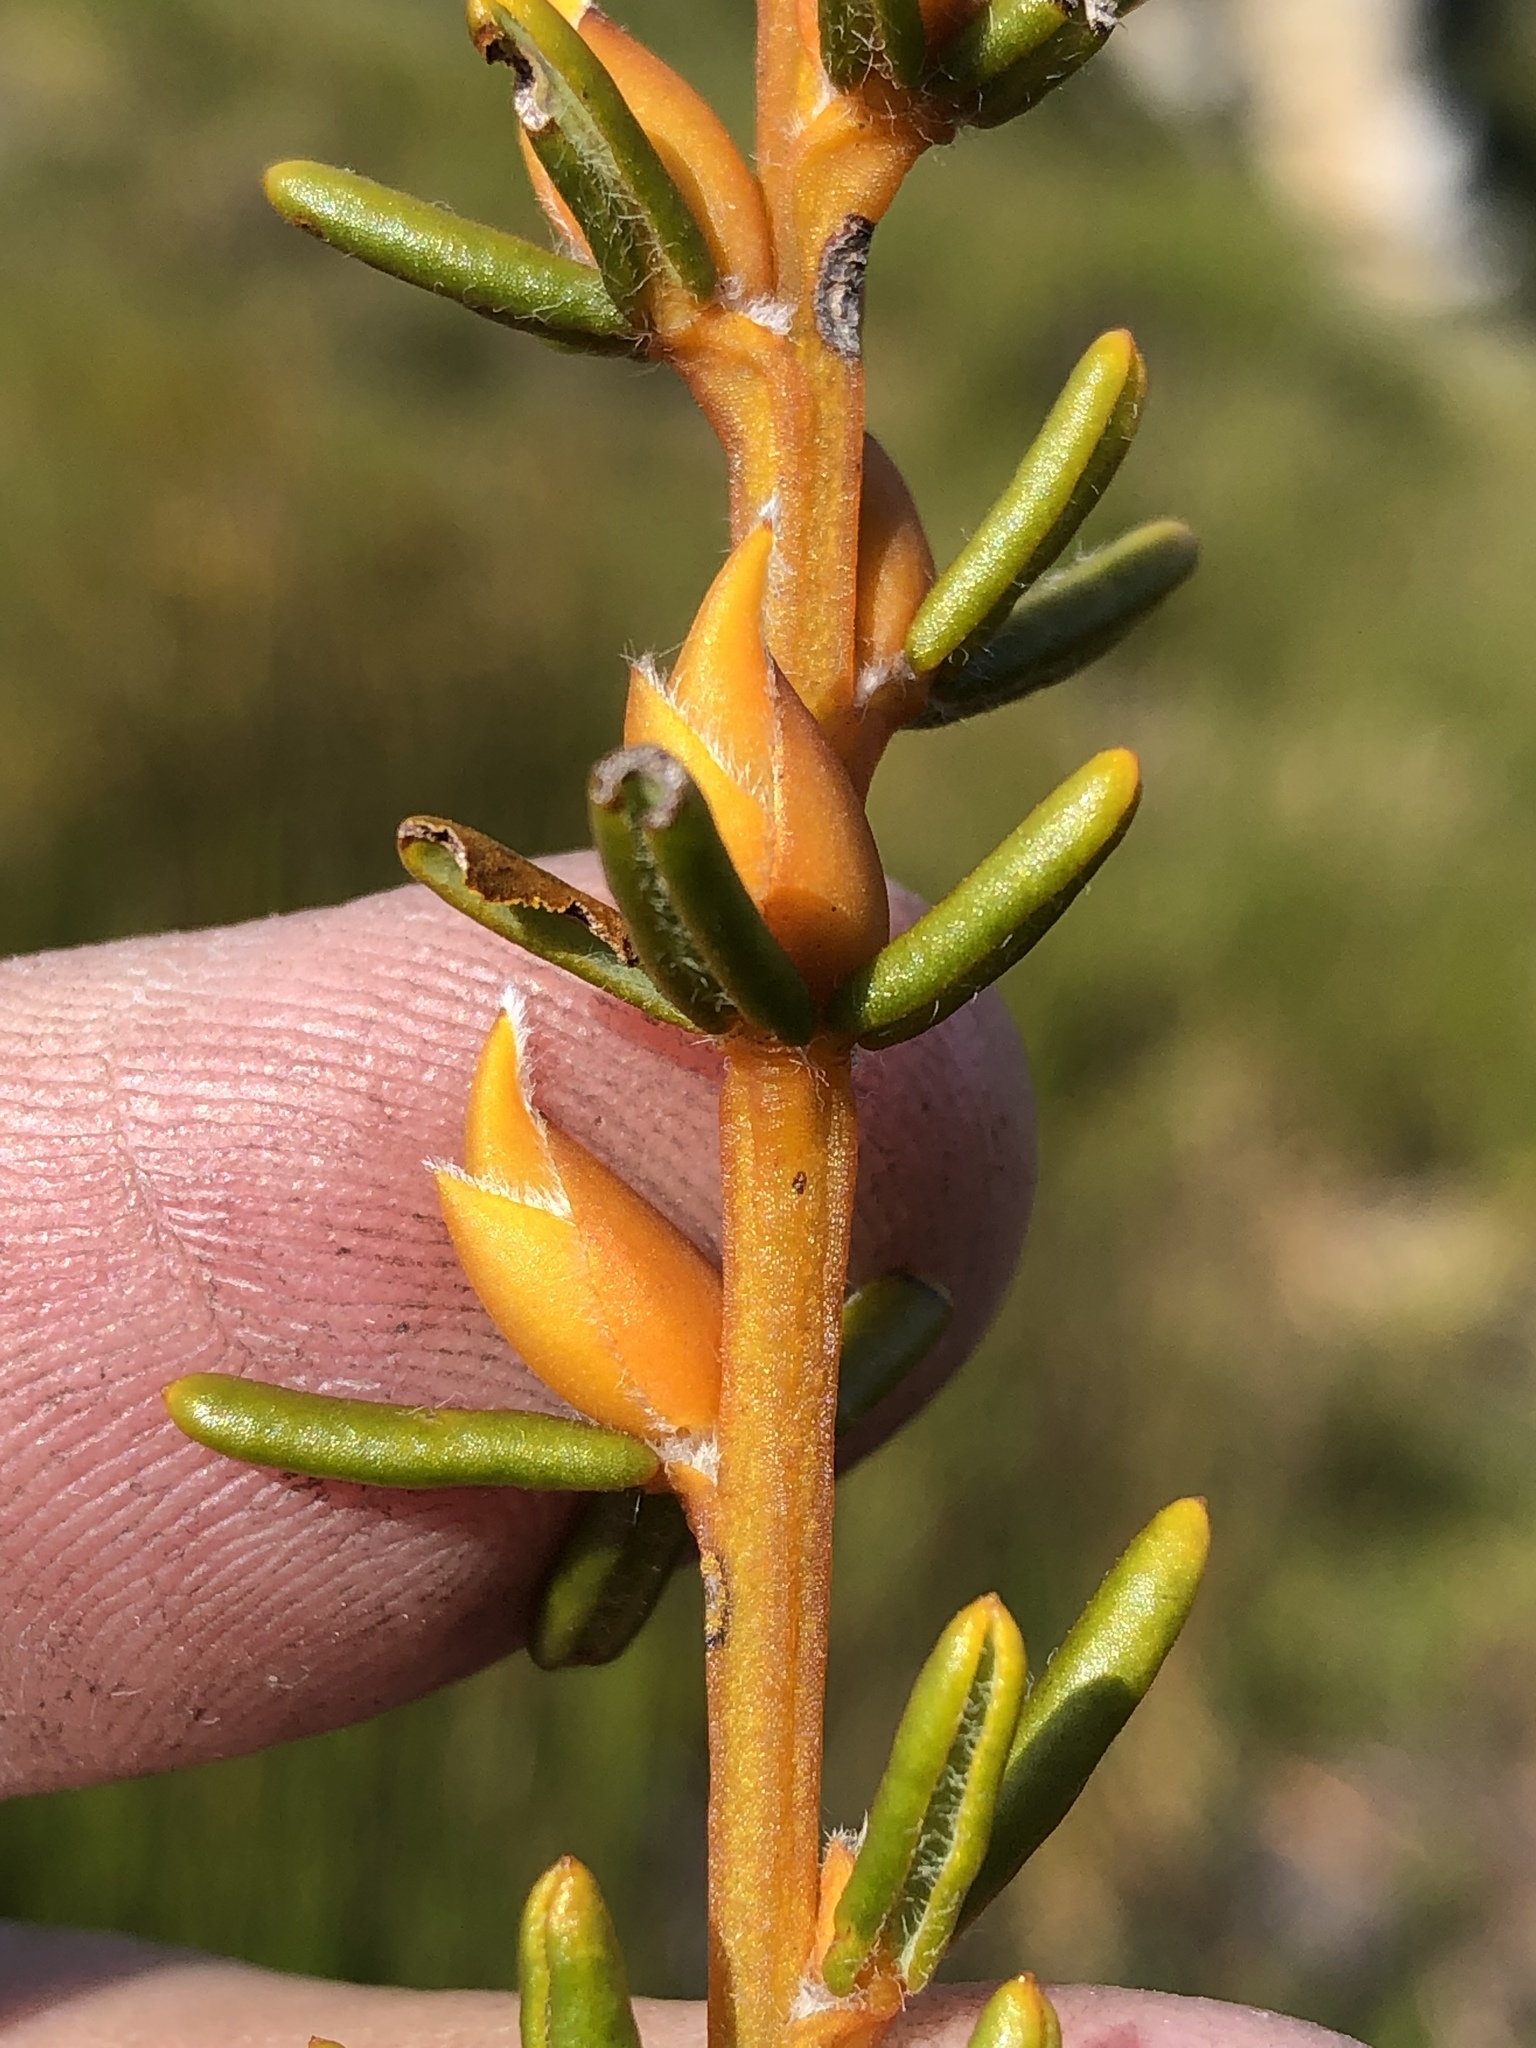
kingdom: Plantae
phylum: Tracheophyta
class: Magnoliopsida
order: Fabales
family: Fabaceae
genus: Cyclopia
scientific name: Cyclopia bowieana
